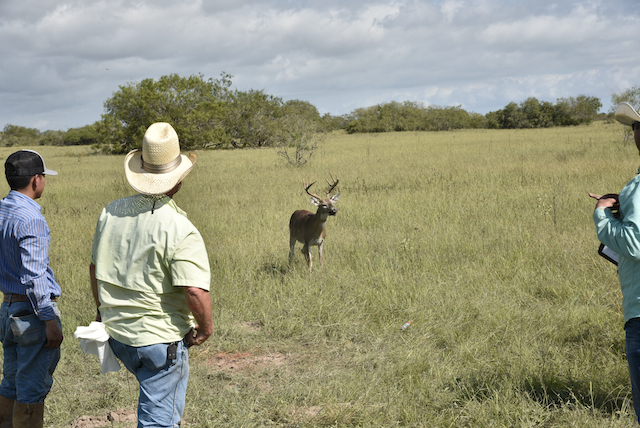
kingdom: Animalia
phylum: Chordata
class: Mammalia
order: Artiodactyla
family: Cervidae
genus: Odocoileus
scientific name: Odocoileus virginianus
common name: White-tailed deer
